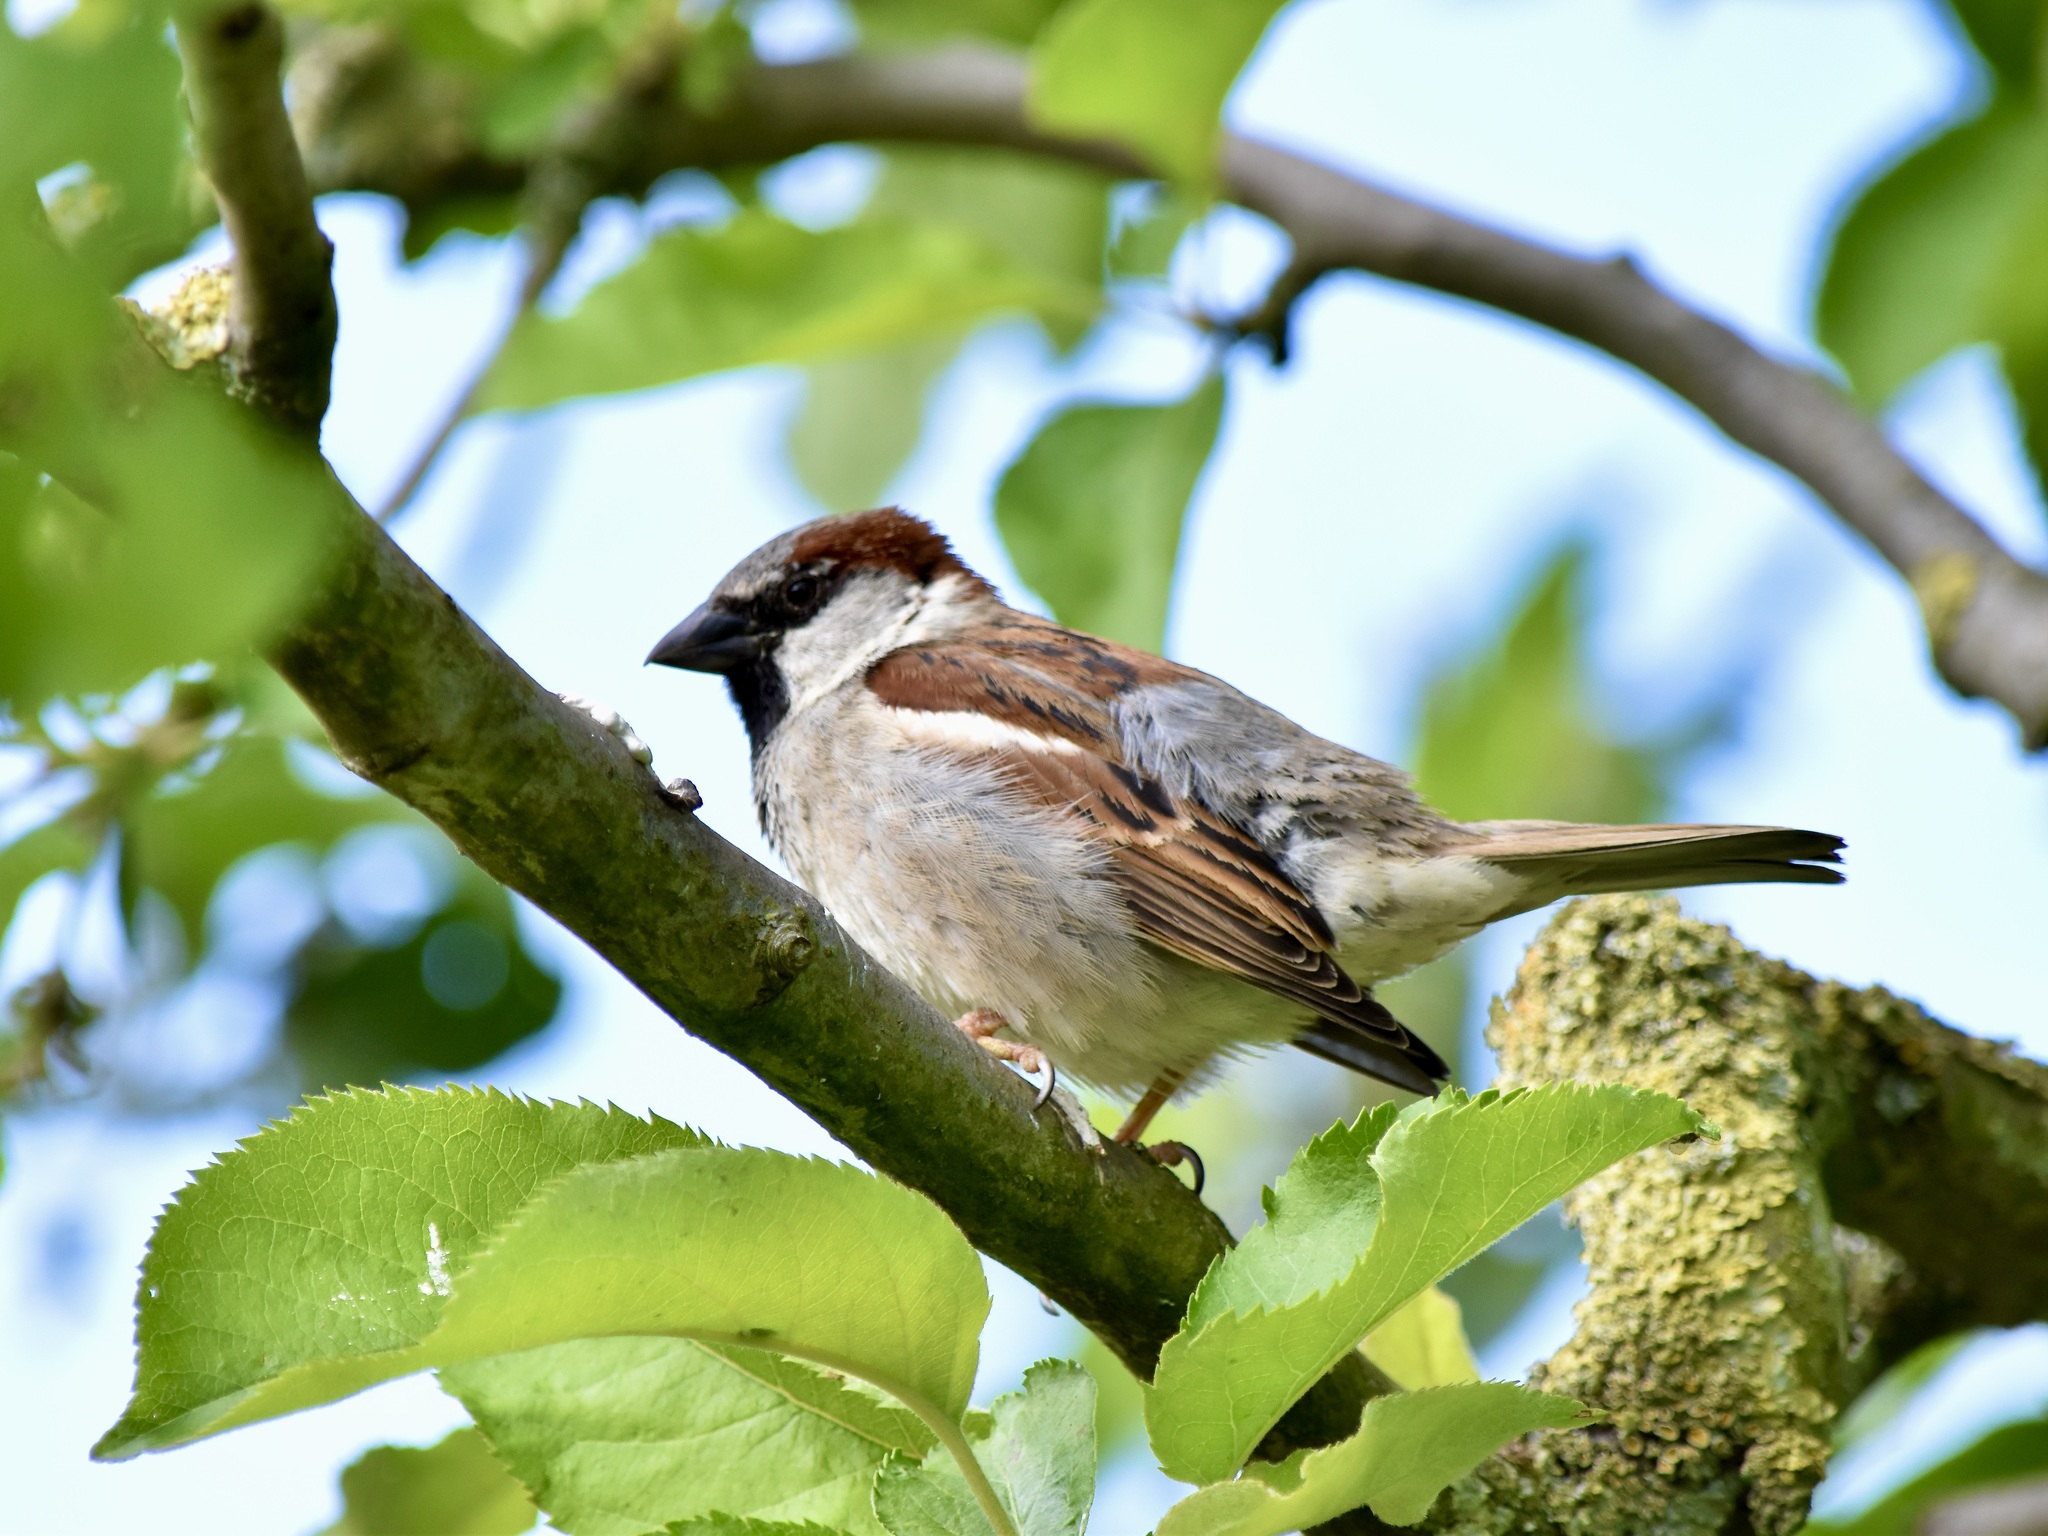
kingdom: Animalia
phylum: Chordata
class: Aves
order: Passeriformes
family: Passeridae
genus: Passer
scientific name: Passer domesticus
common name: House sparrow
